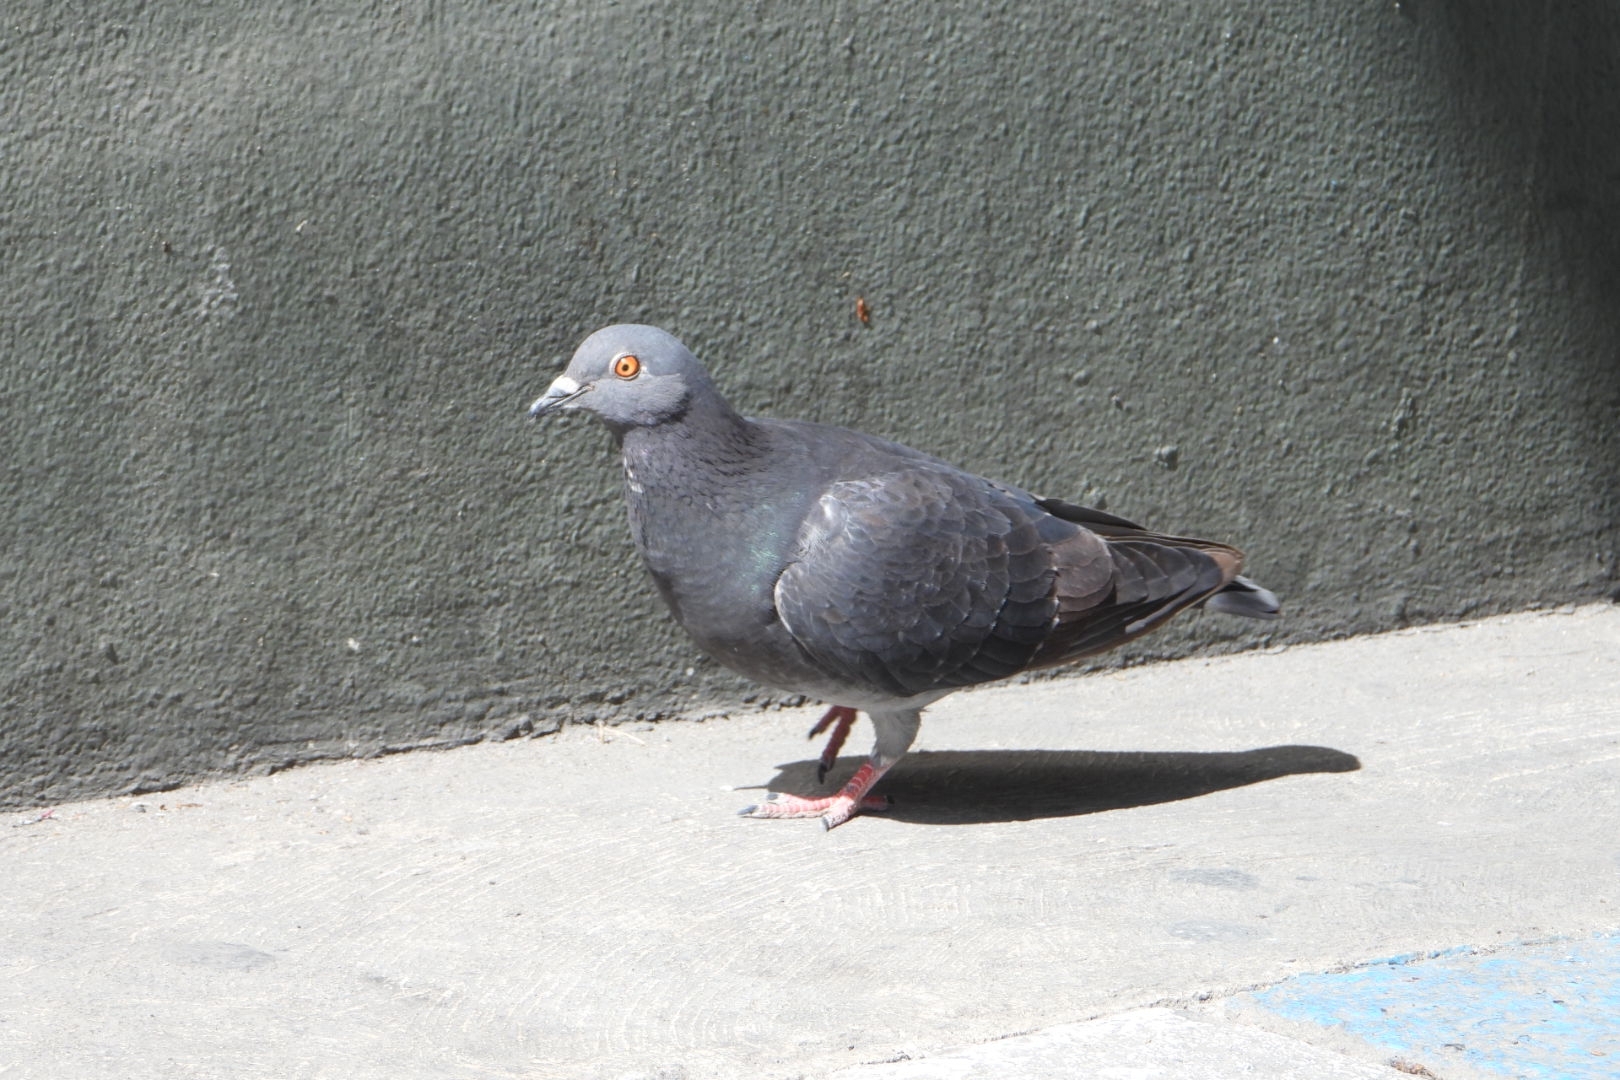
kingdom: Animalia
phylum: Chordata
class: Aves
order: Columbiformes
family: Columbidae
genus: Columba
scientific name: Columba livia
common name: Rock pigeon
